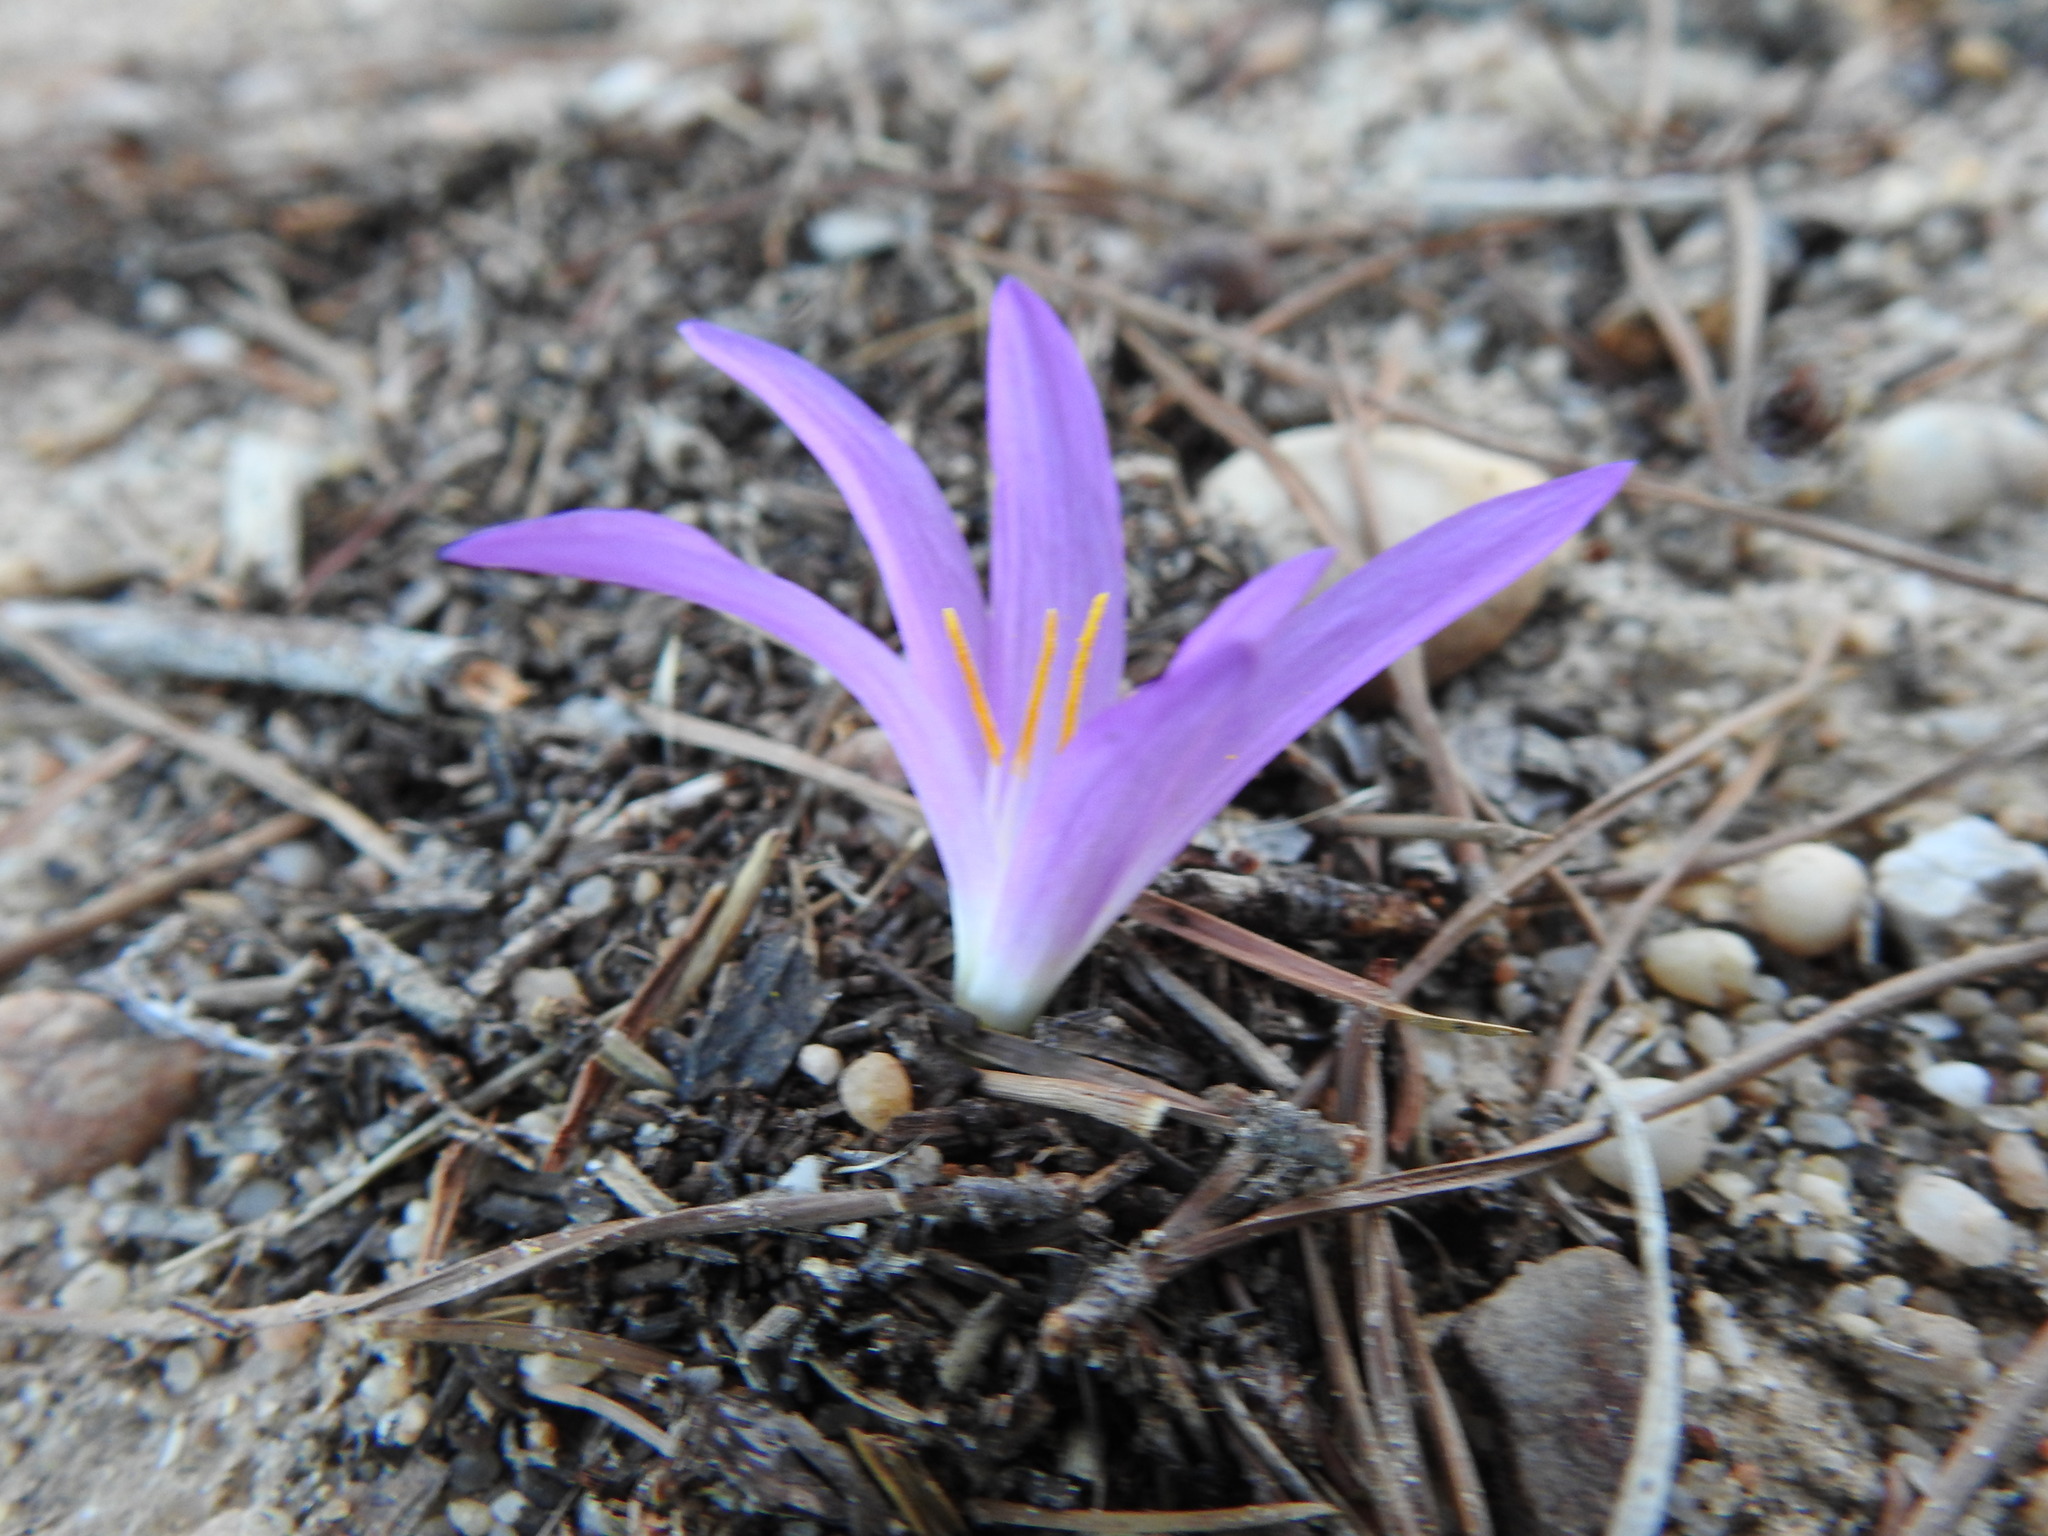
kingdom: Plantae
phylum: Tracheophyta
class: Liliopsida
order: Liliales
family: Colchicaceae
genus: Colchicum
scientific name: Colchicum filifolium
